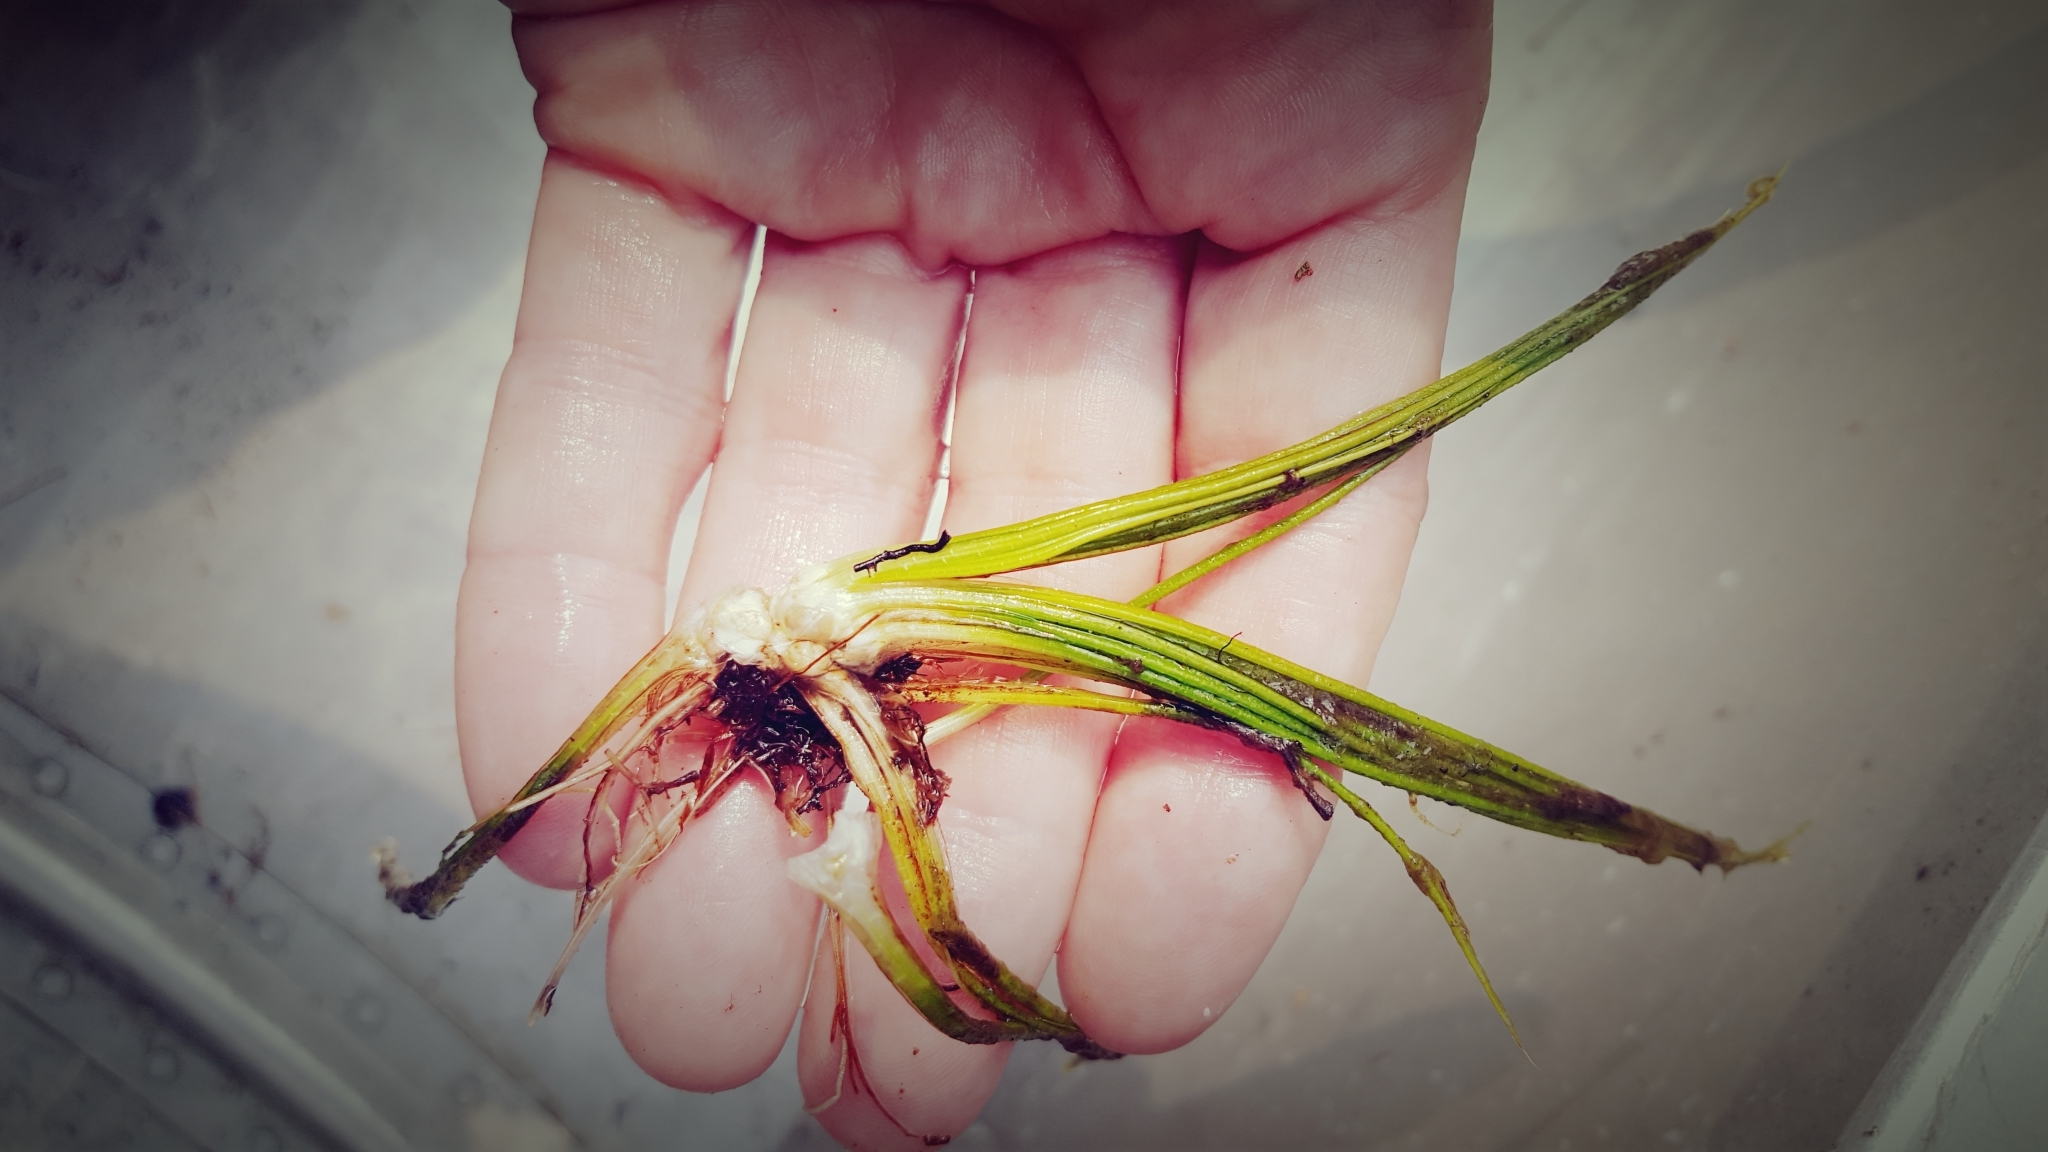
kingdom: Plantae
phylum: Tracheophyta
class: Lycopodiopsida
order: Isoetales
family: Isoetaceae
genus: Isoetes
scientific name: Isoetes echinospora
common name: Spring quillwort
